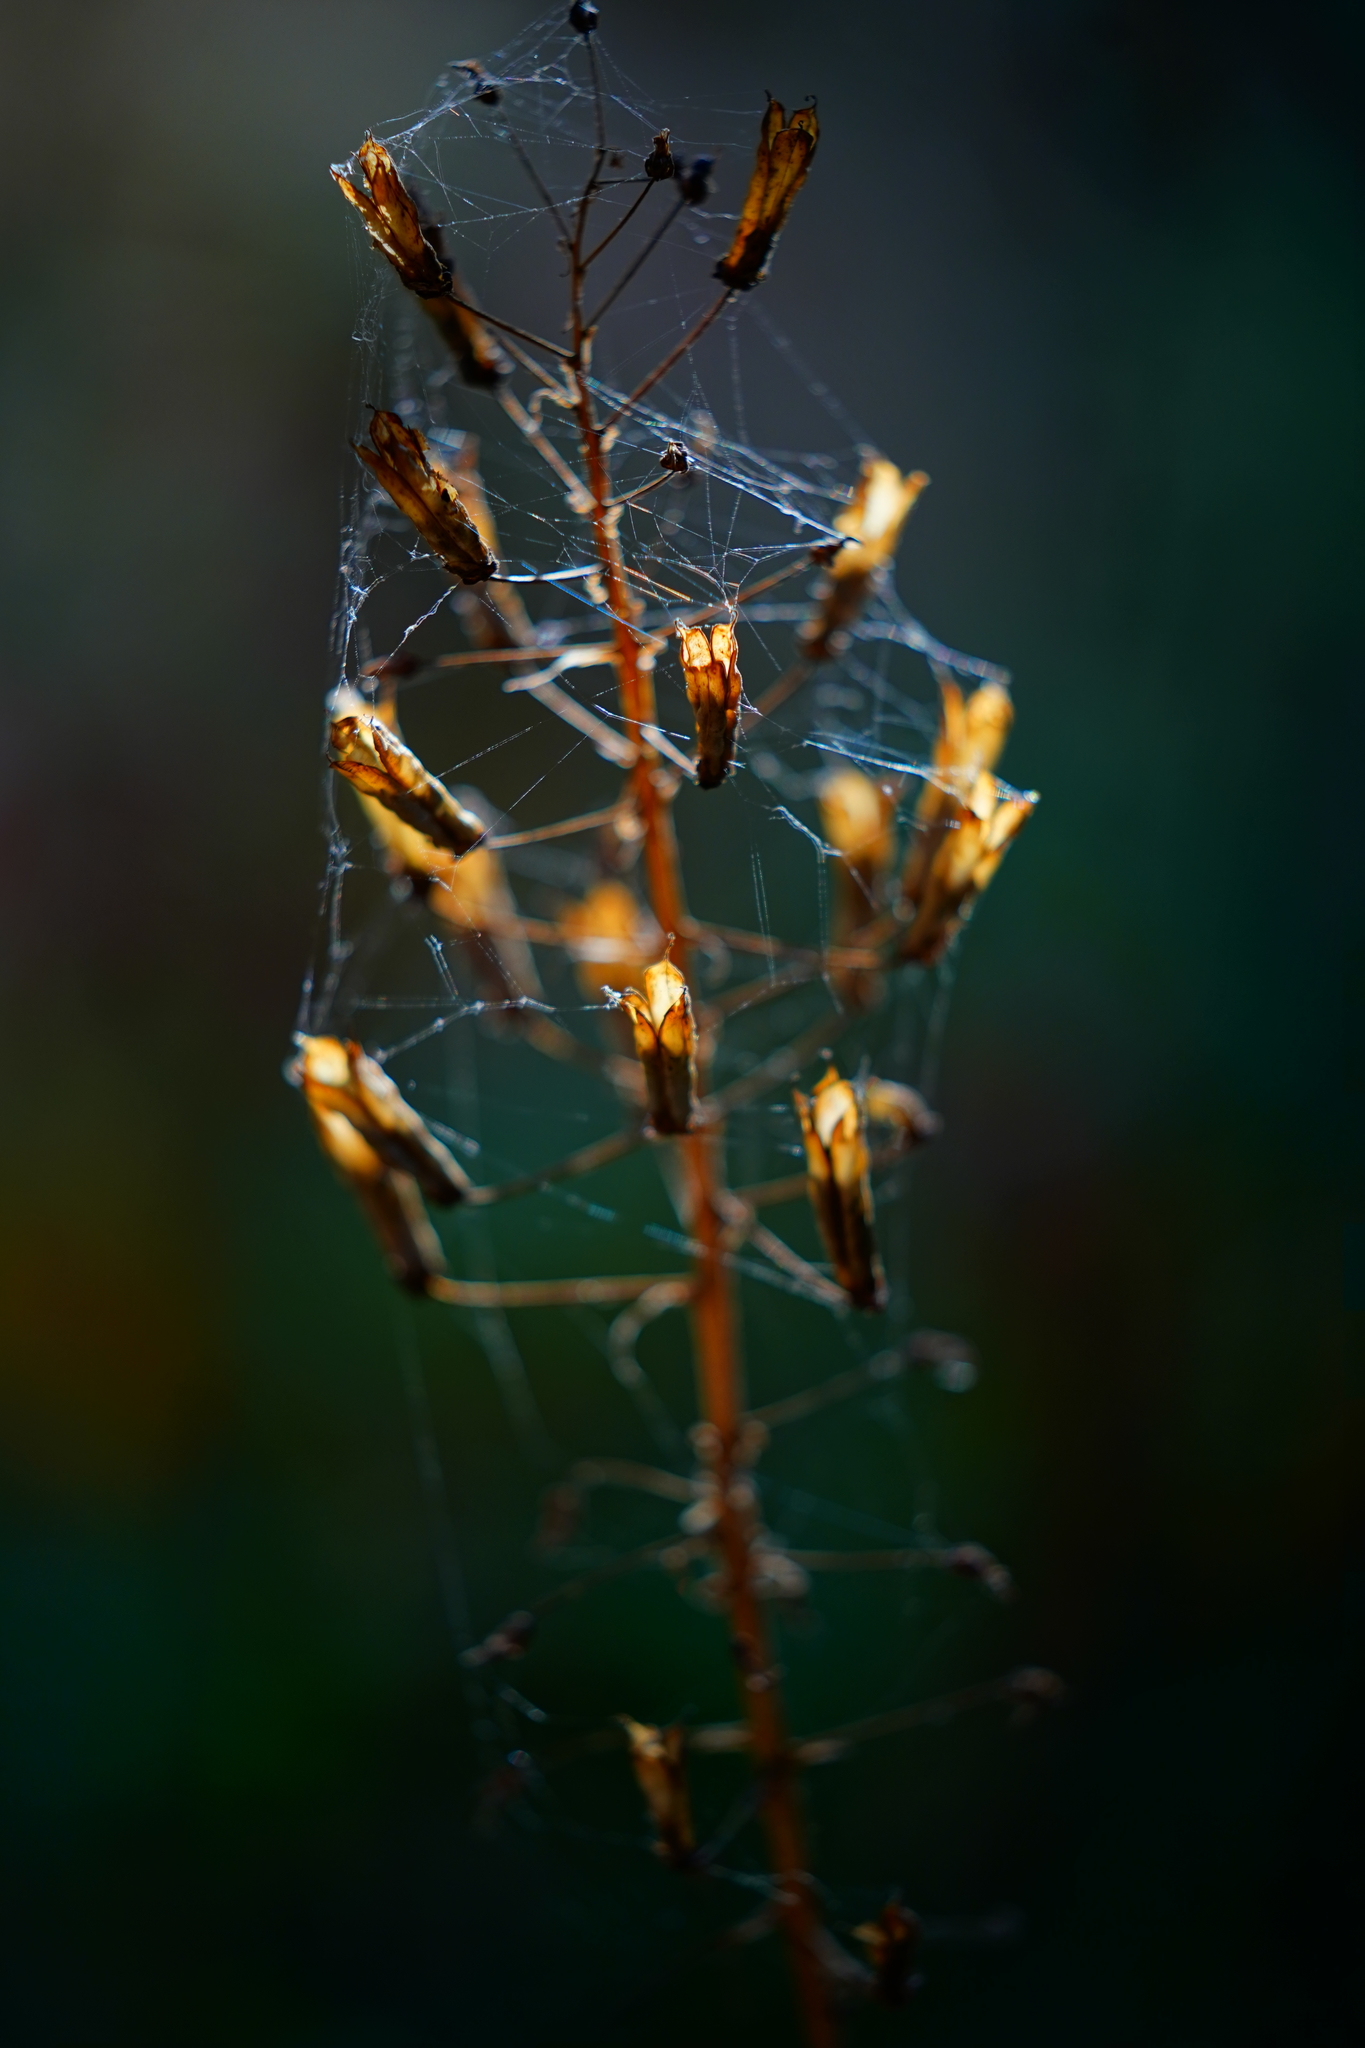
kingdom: Plantae
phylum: Tracheophyta
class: Liliopsida
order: Liliales
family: Melanthiaceae
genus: Toxicoscordion
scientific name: Toxicoscordion fremontii
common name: Fremont's death camas
